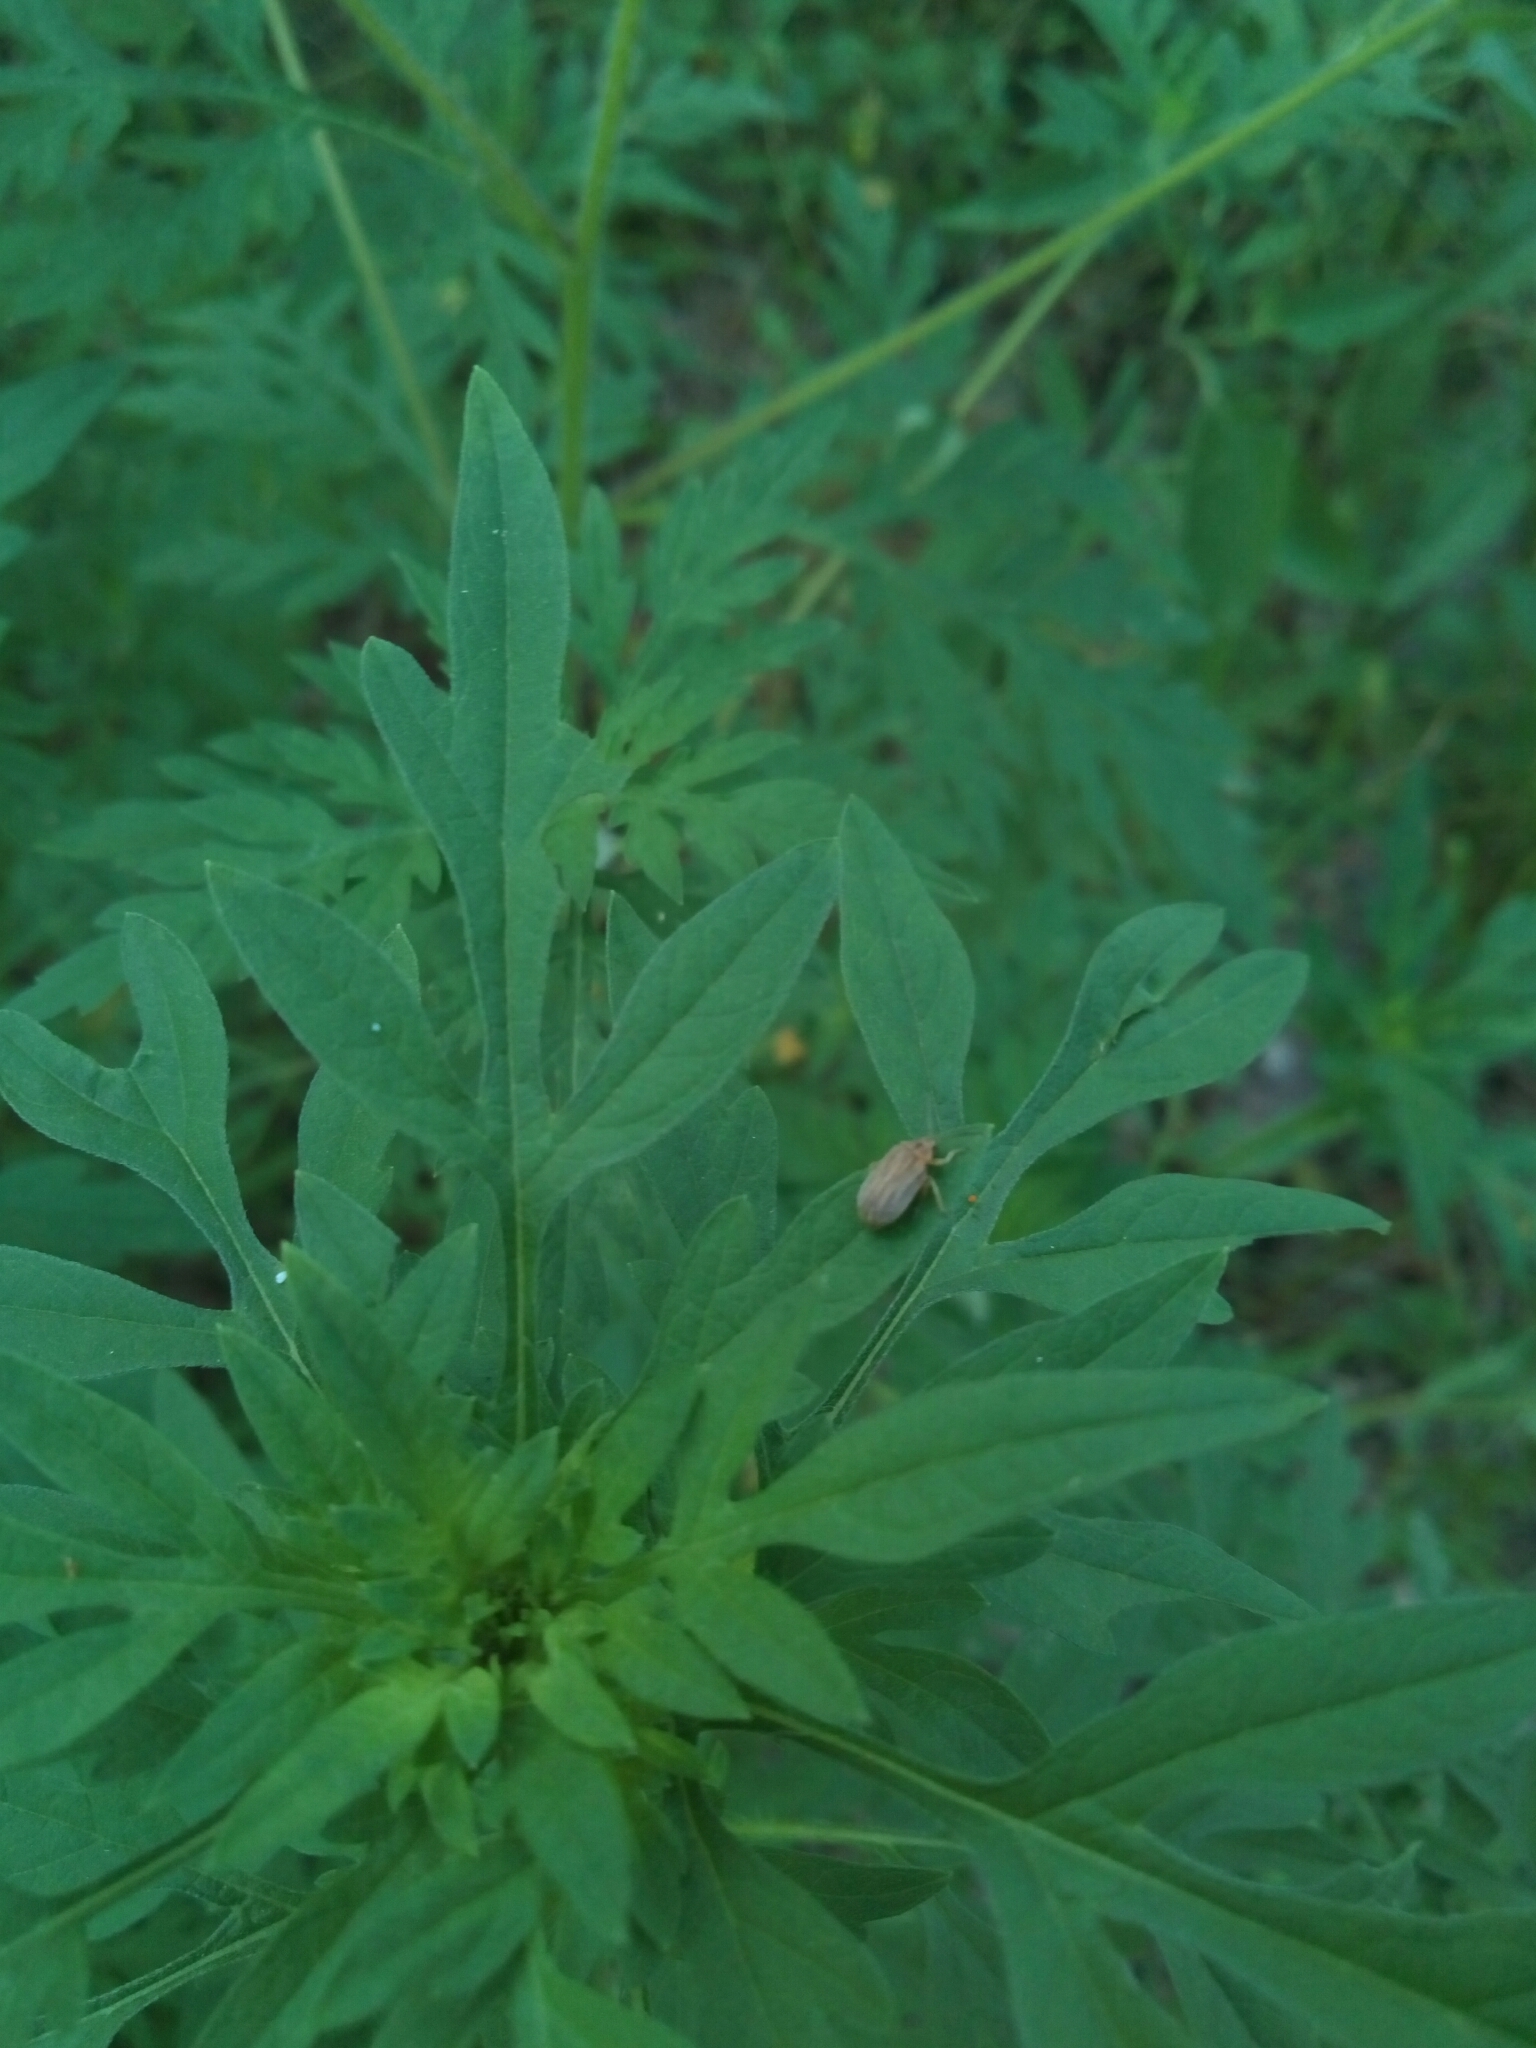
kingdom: Animalia
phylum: Arthropoda
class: Insecta
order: Coleoptera
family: Chrysomelidae
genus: Ophraella
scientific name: Ophraella communa
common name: Ragweed leaf beetle
